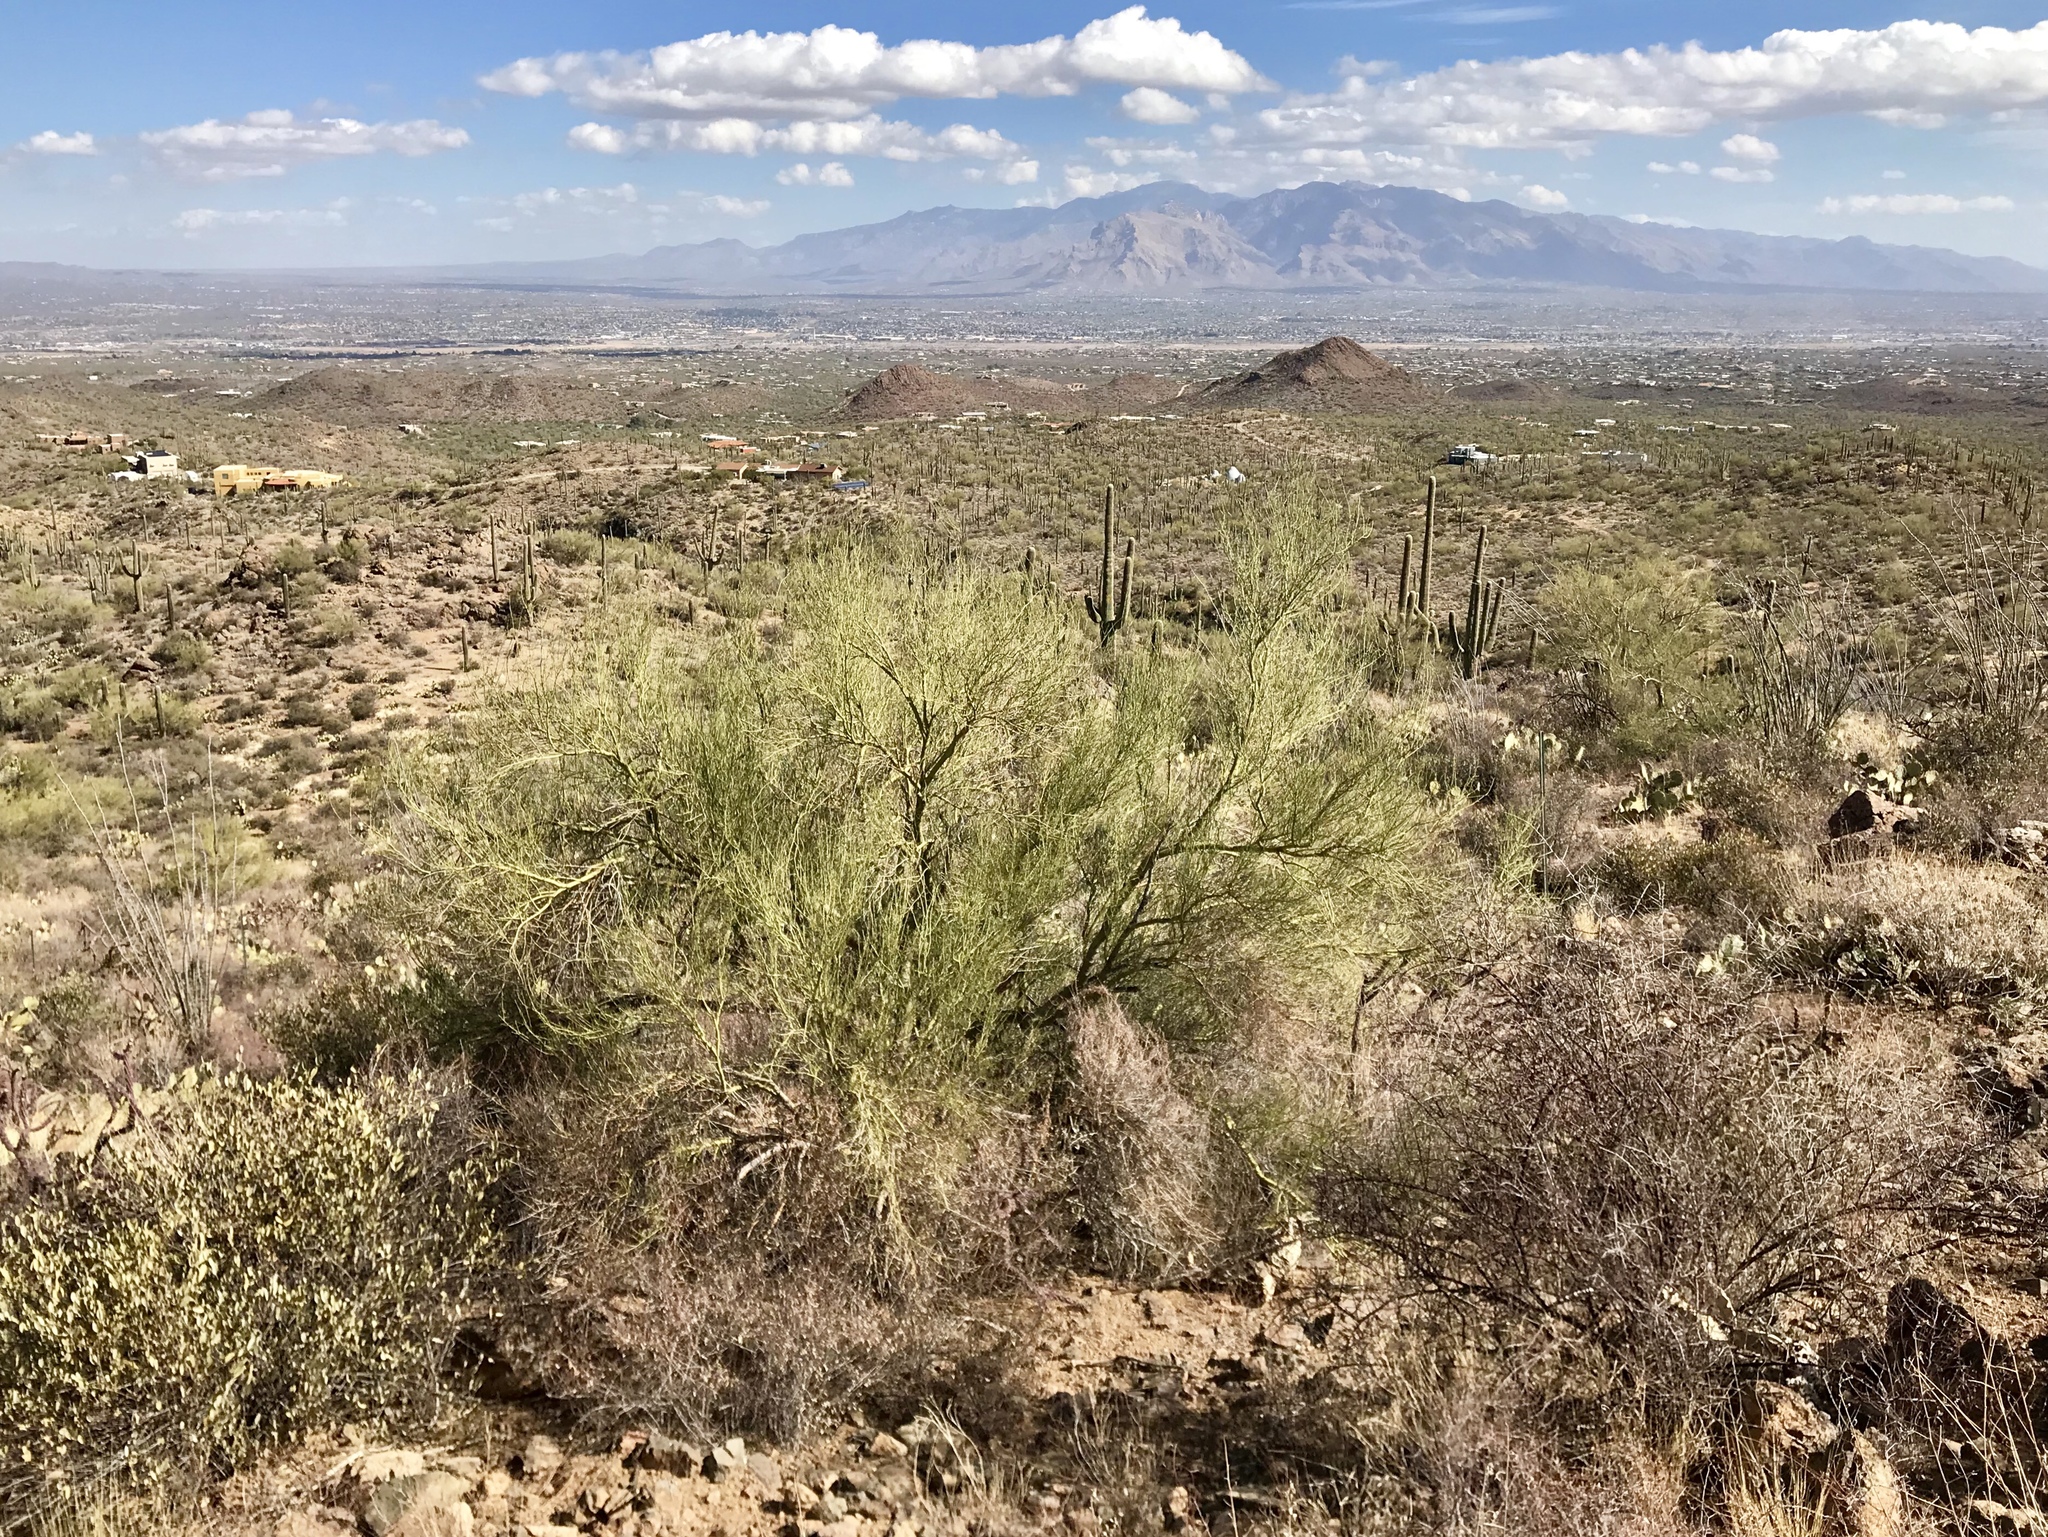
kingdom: Plantae
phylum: Tracheophyta
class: Magnoliopsida
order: Fabales
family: Fabaceae
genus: Parkinsonia
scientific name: Parkinsonia microphylla
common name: Yellow paloverde
